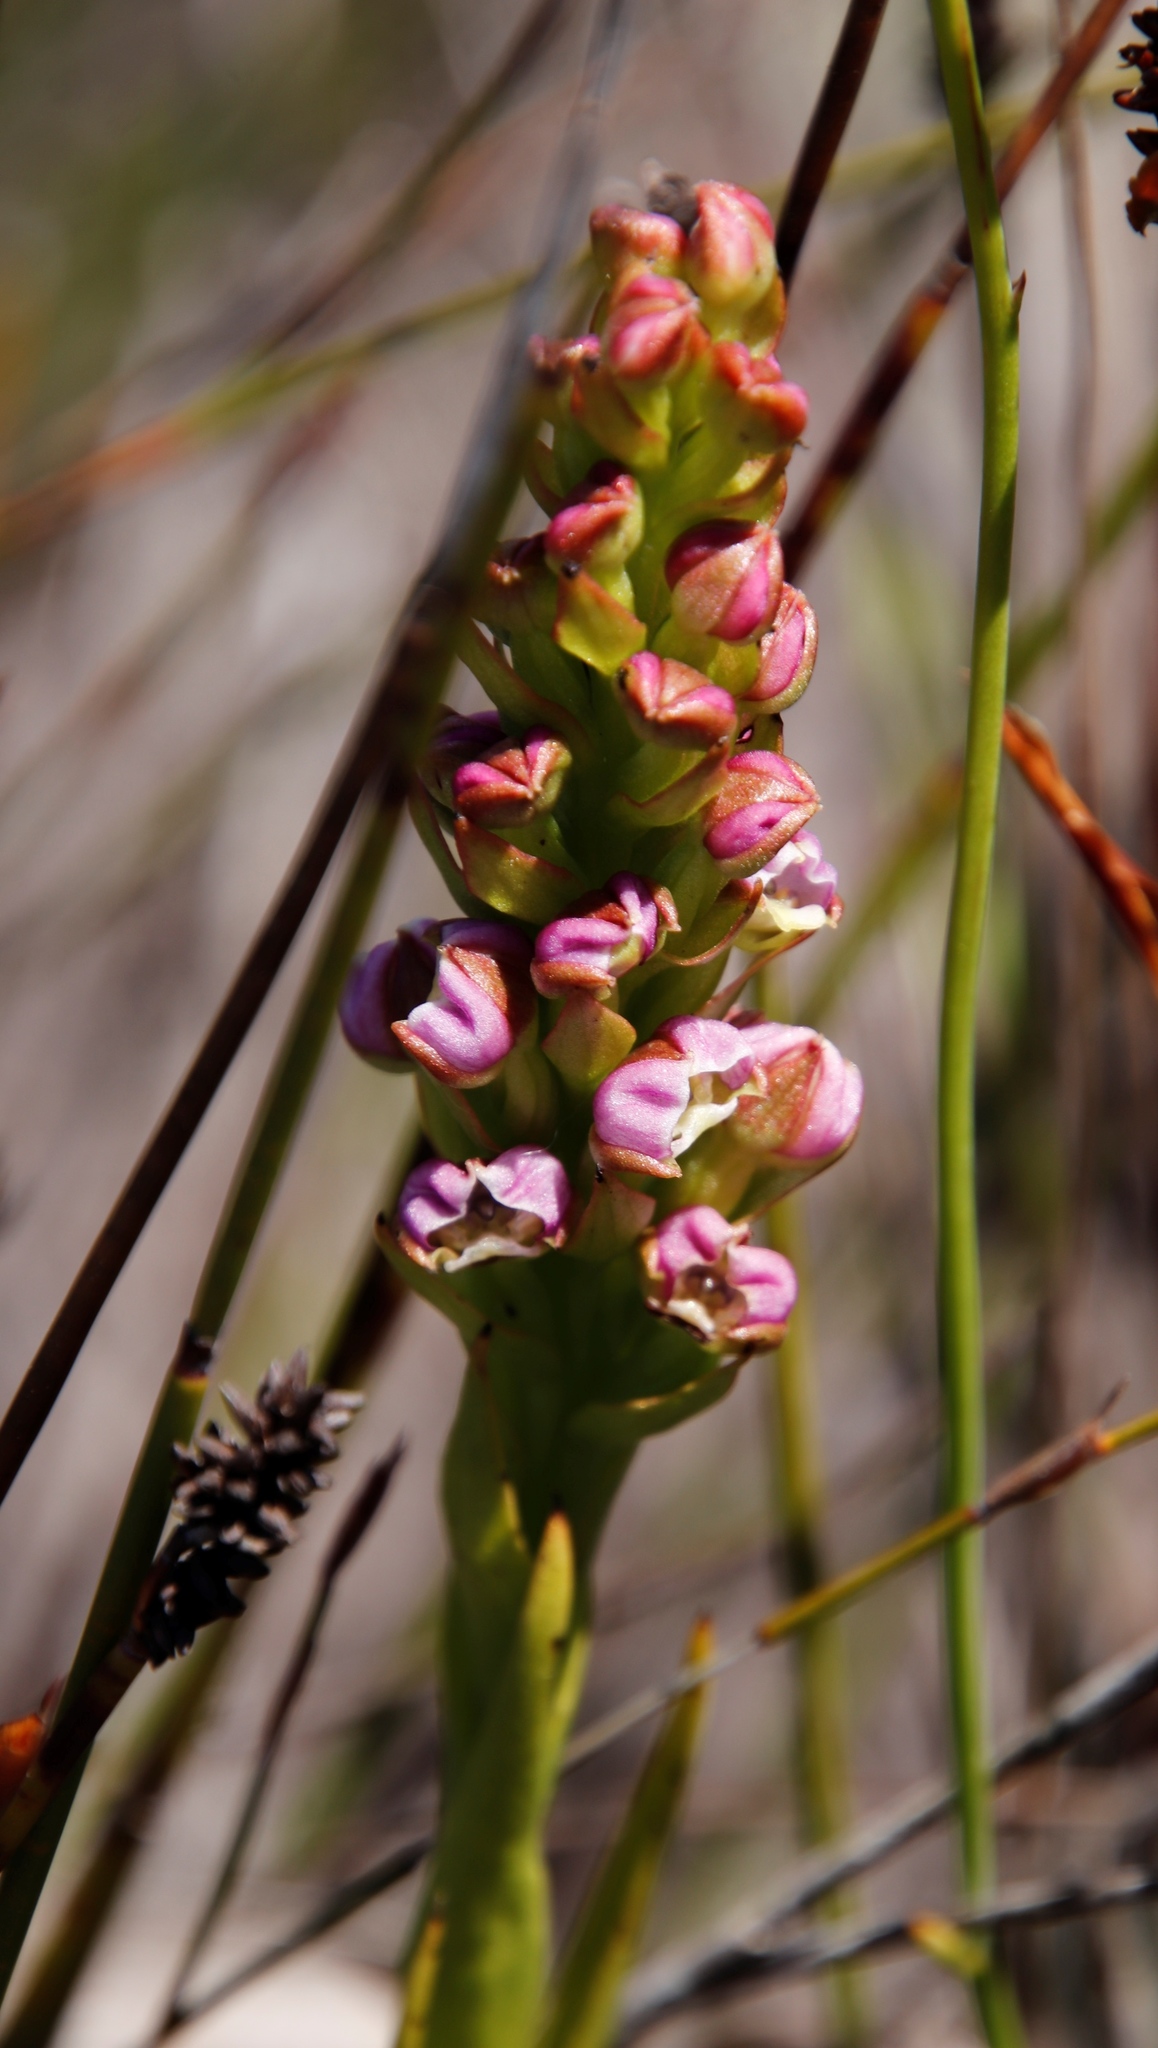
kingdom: Plantae
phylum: Tracheophyta
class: Liliopsida
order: Asparagales
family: Orchidaceae
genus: Evotella
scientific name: Evotella carnosa
